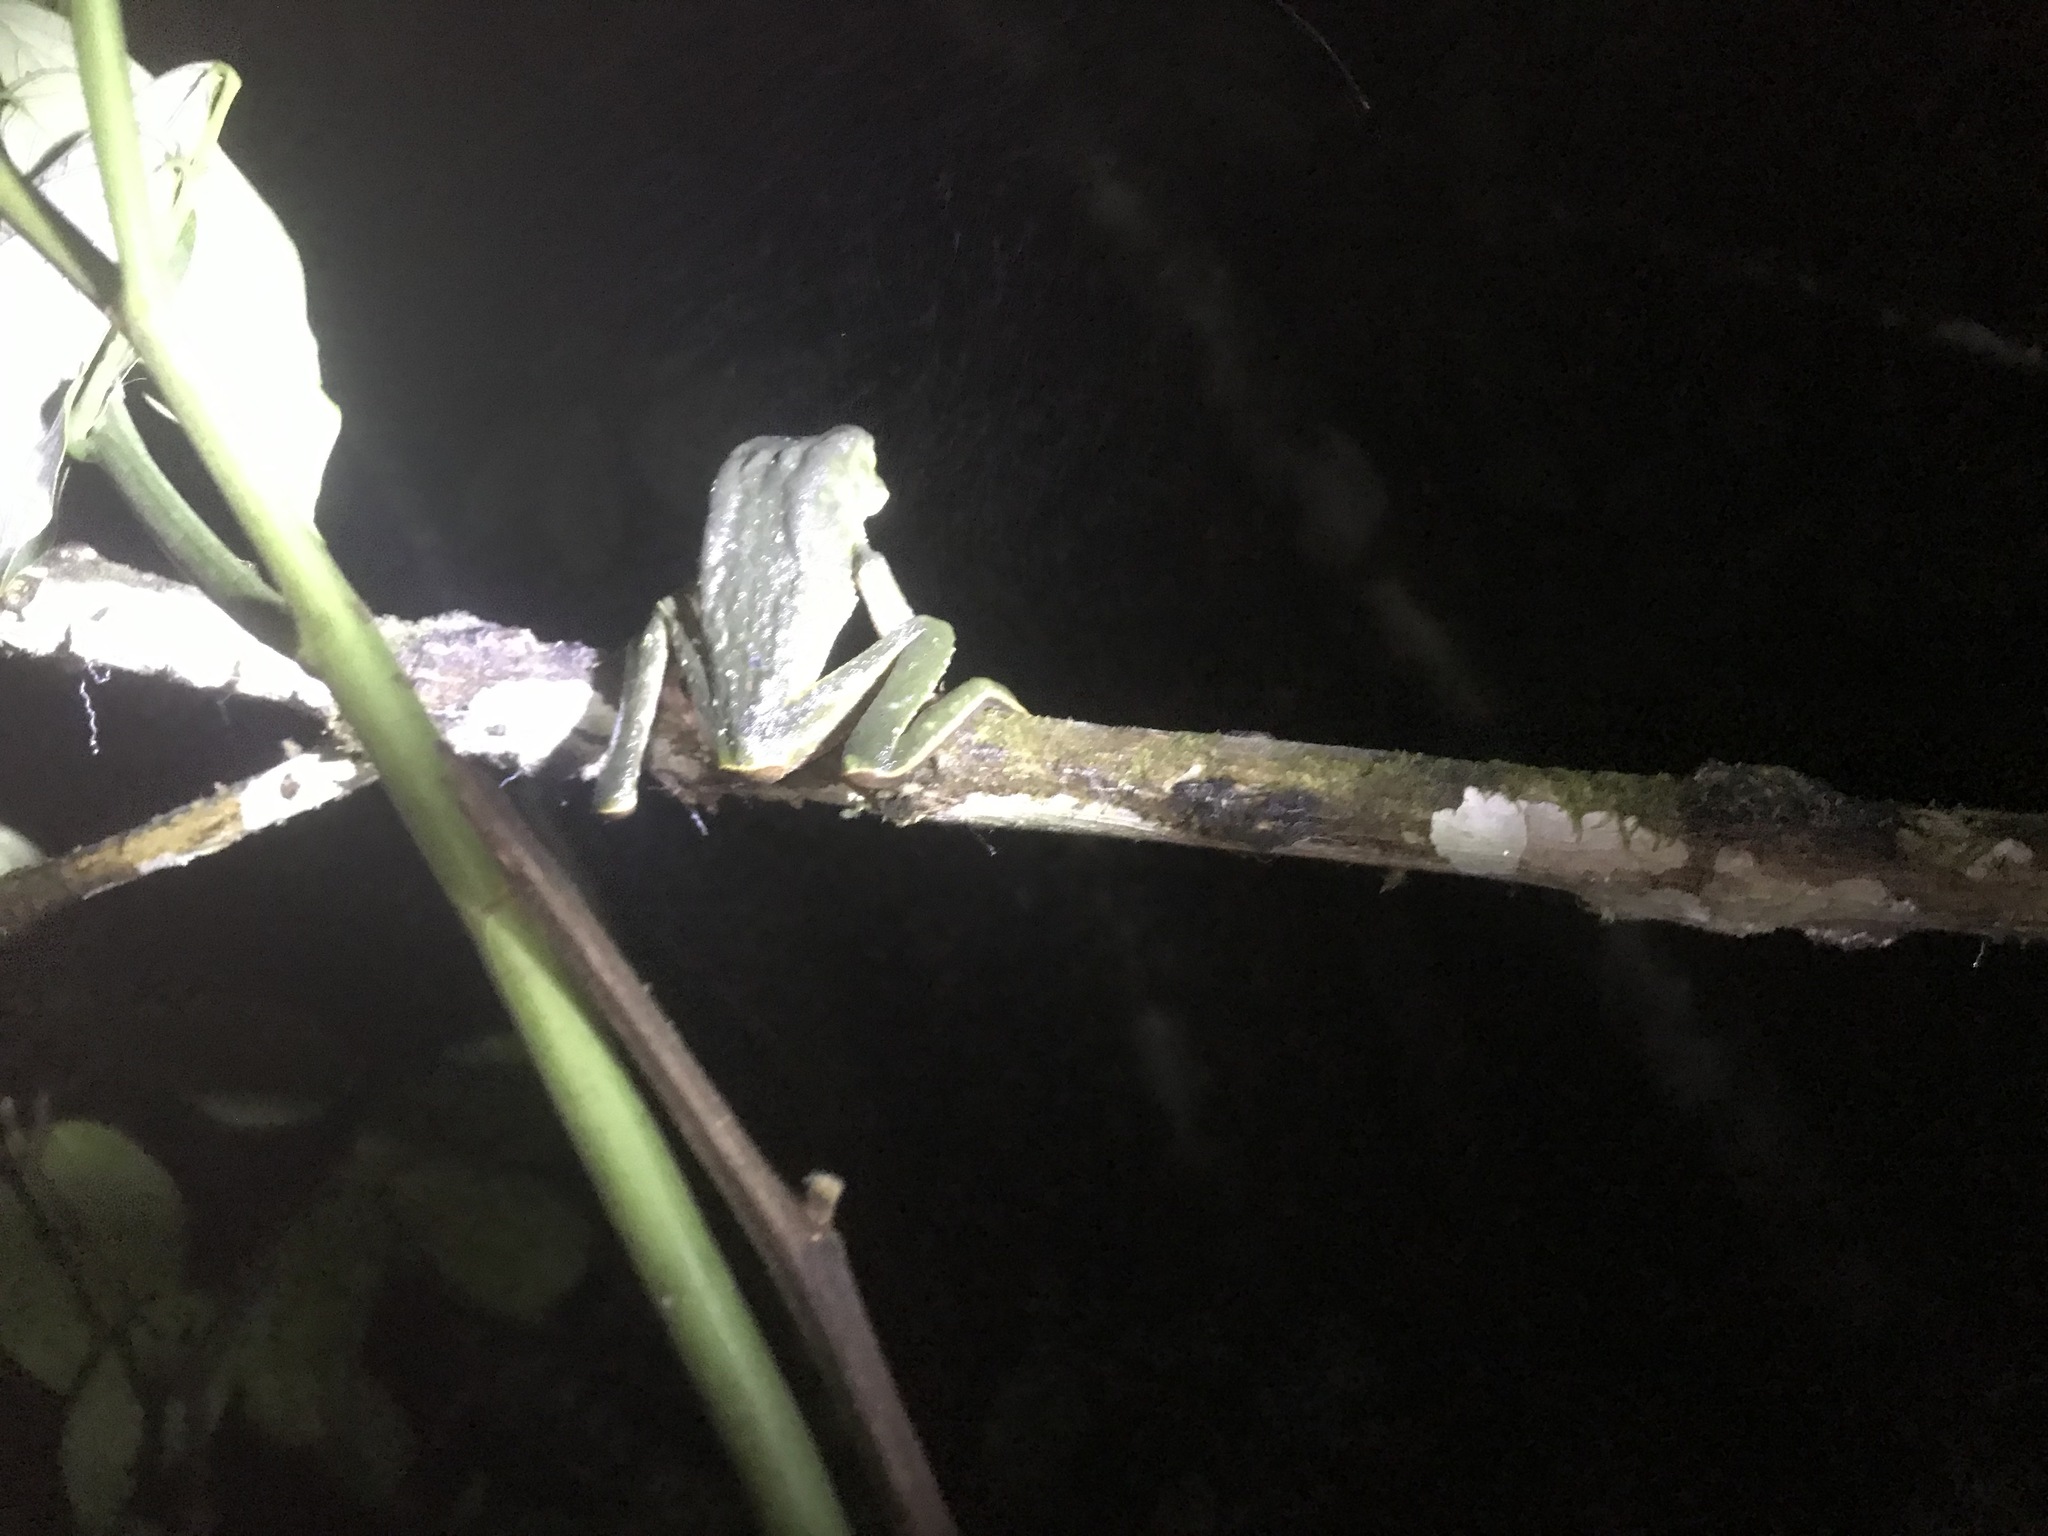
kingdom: Animalia
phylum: Chordata
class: Amphibia
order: Anura
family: Phyllomedusidae
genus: Phyllomedusa
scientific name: Phyllomedusa tarsius
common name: Brownbelly leaf frog
